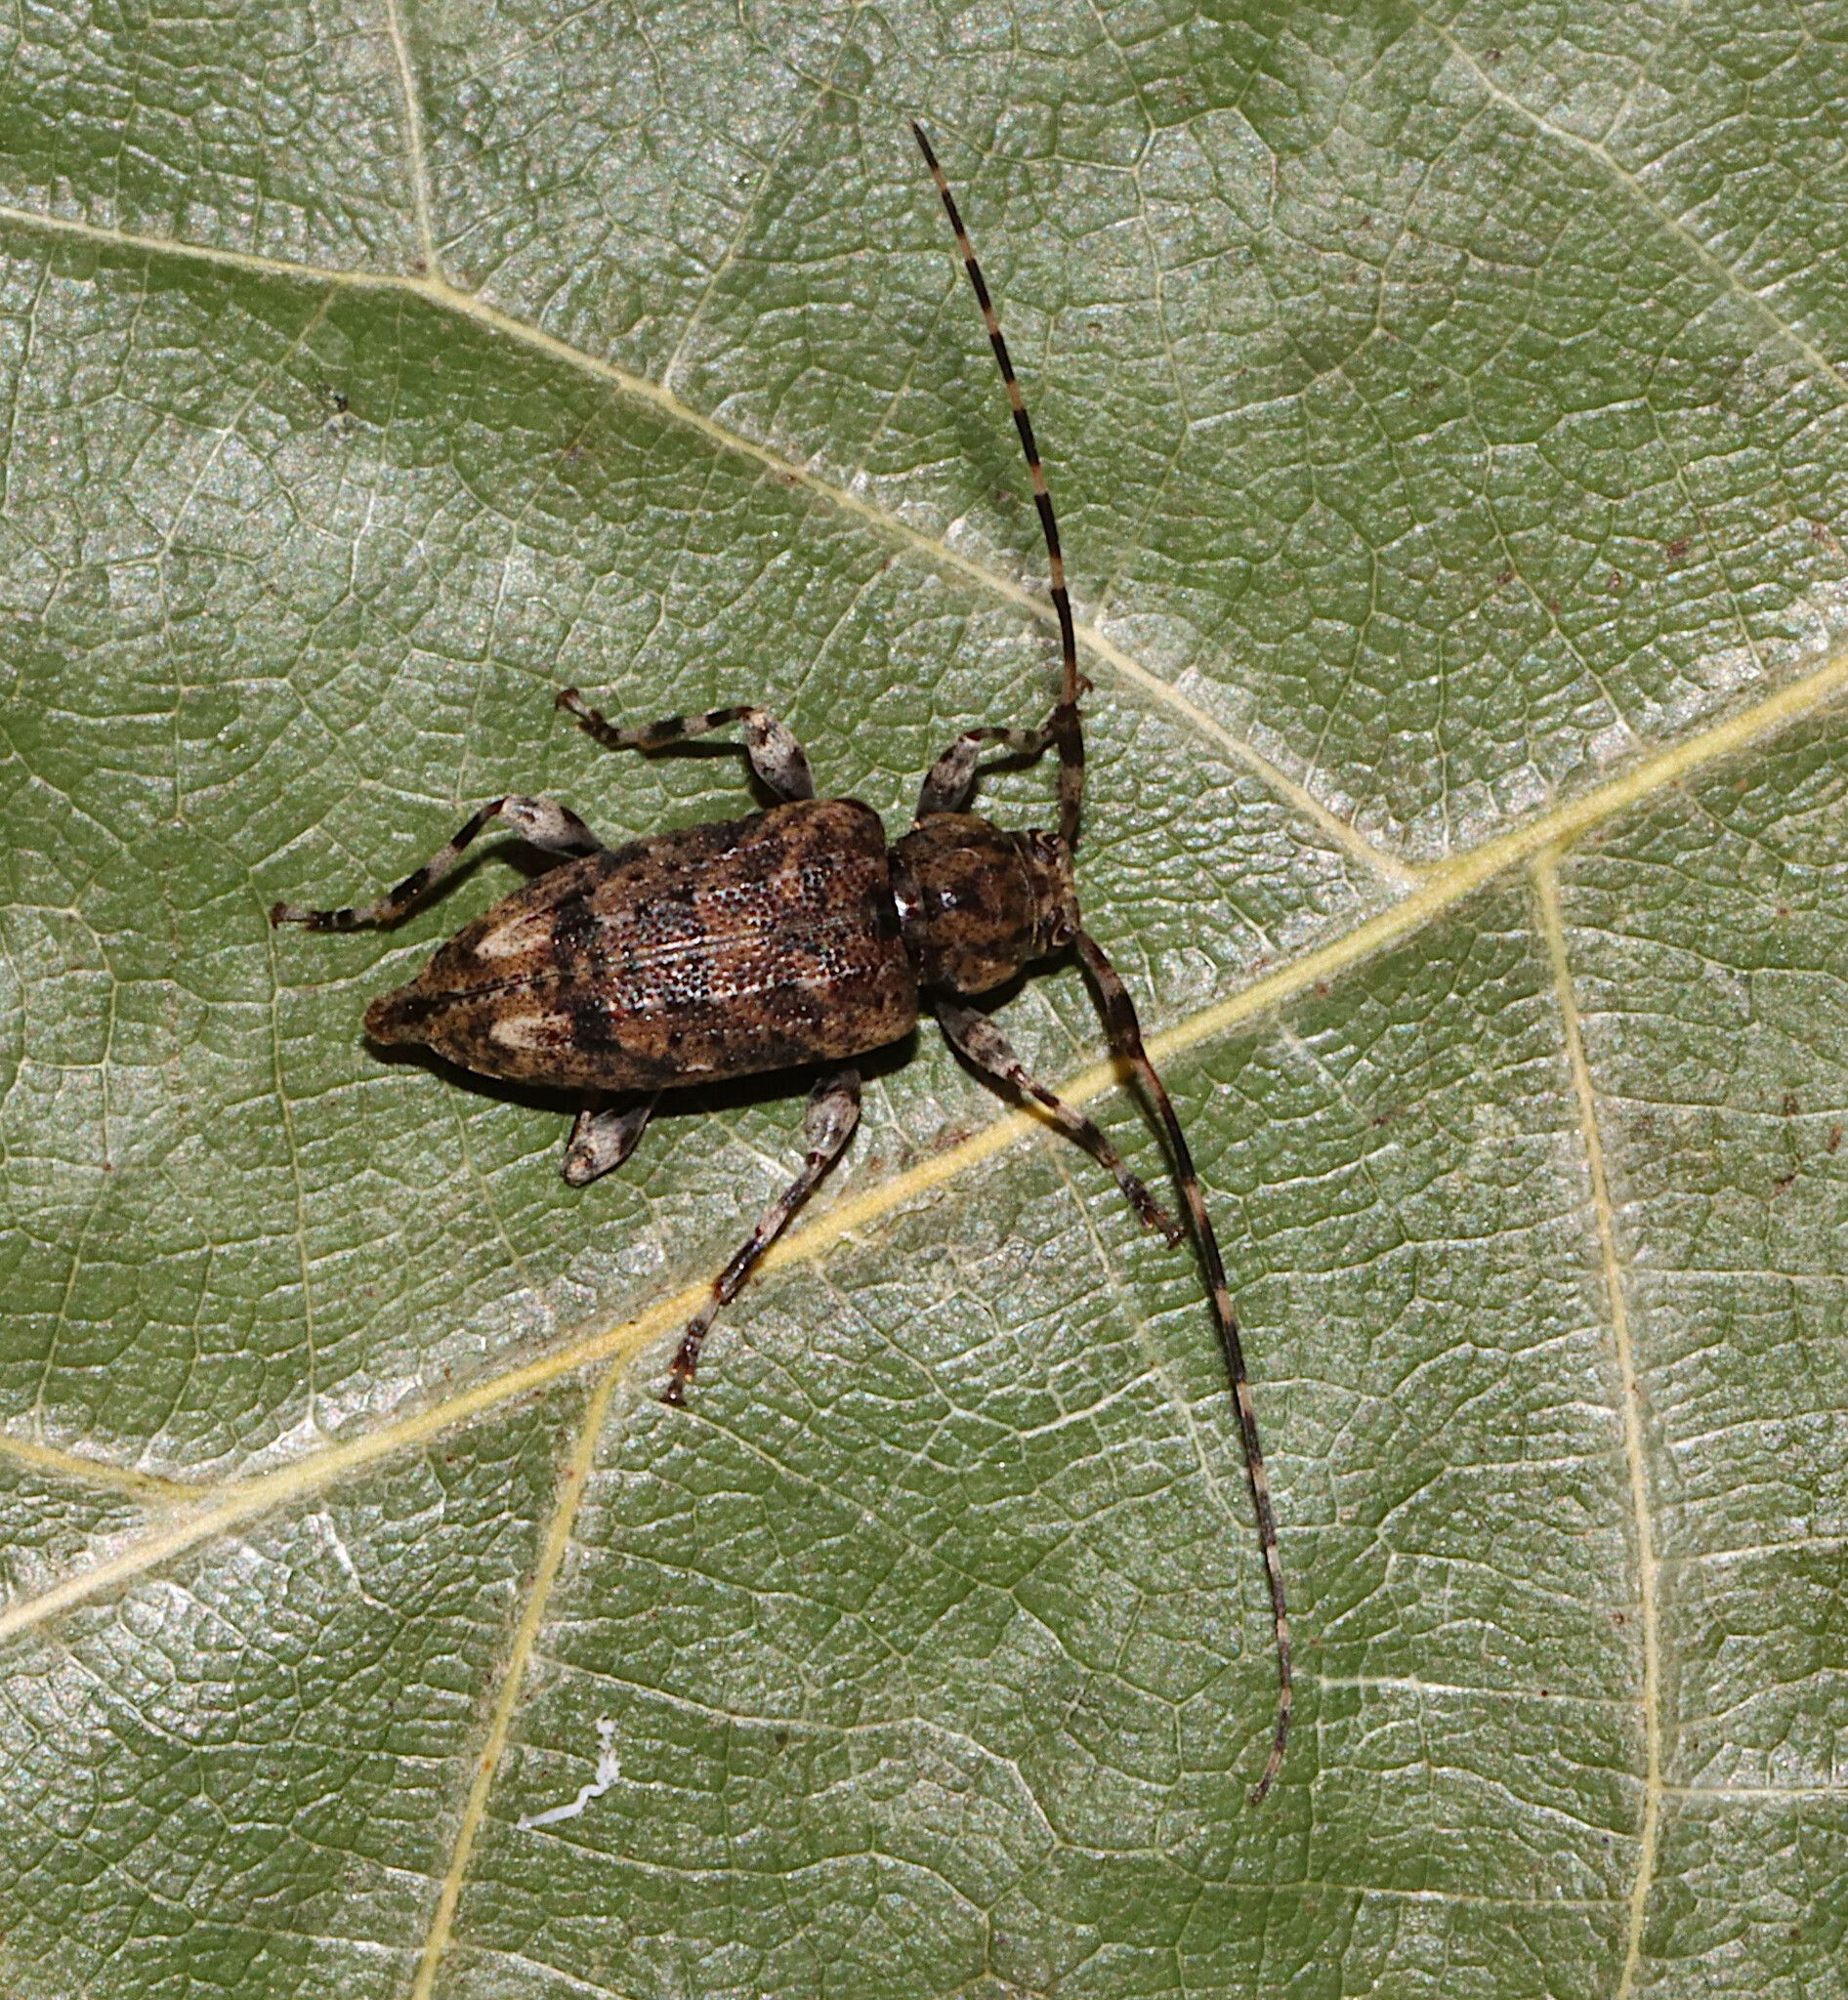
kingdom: Animalia
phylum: Arthropoda
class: Insecta
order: Coleoptera
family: Cerambycidae
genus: Astyleiopus
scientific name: Astyleiopus variegatus
